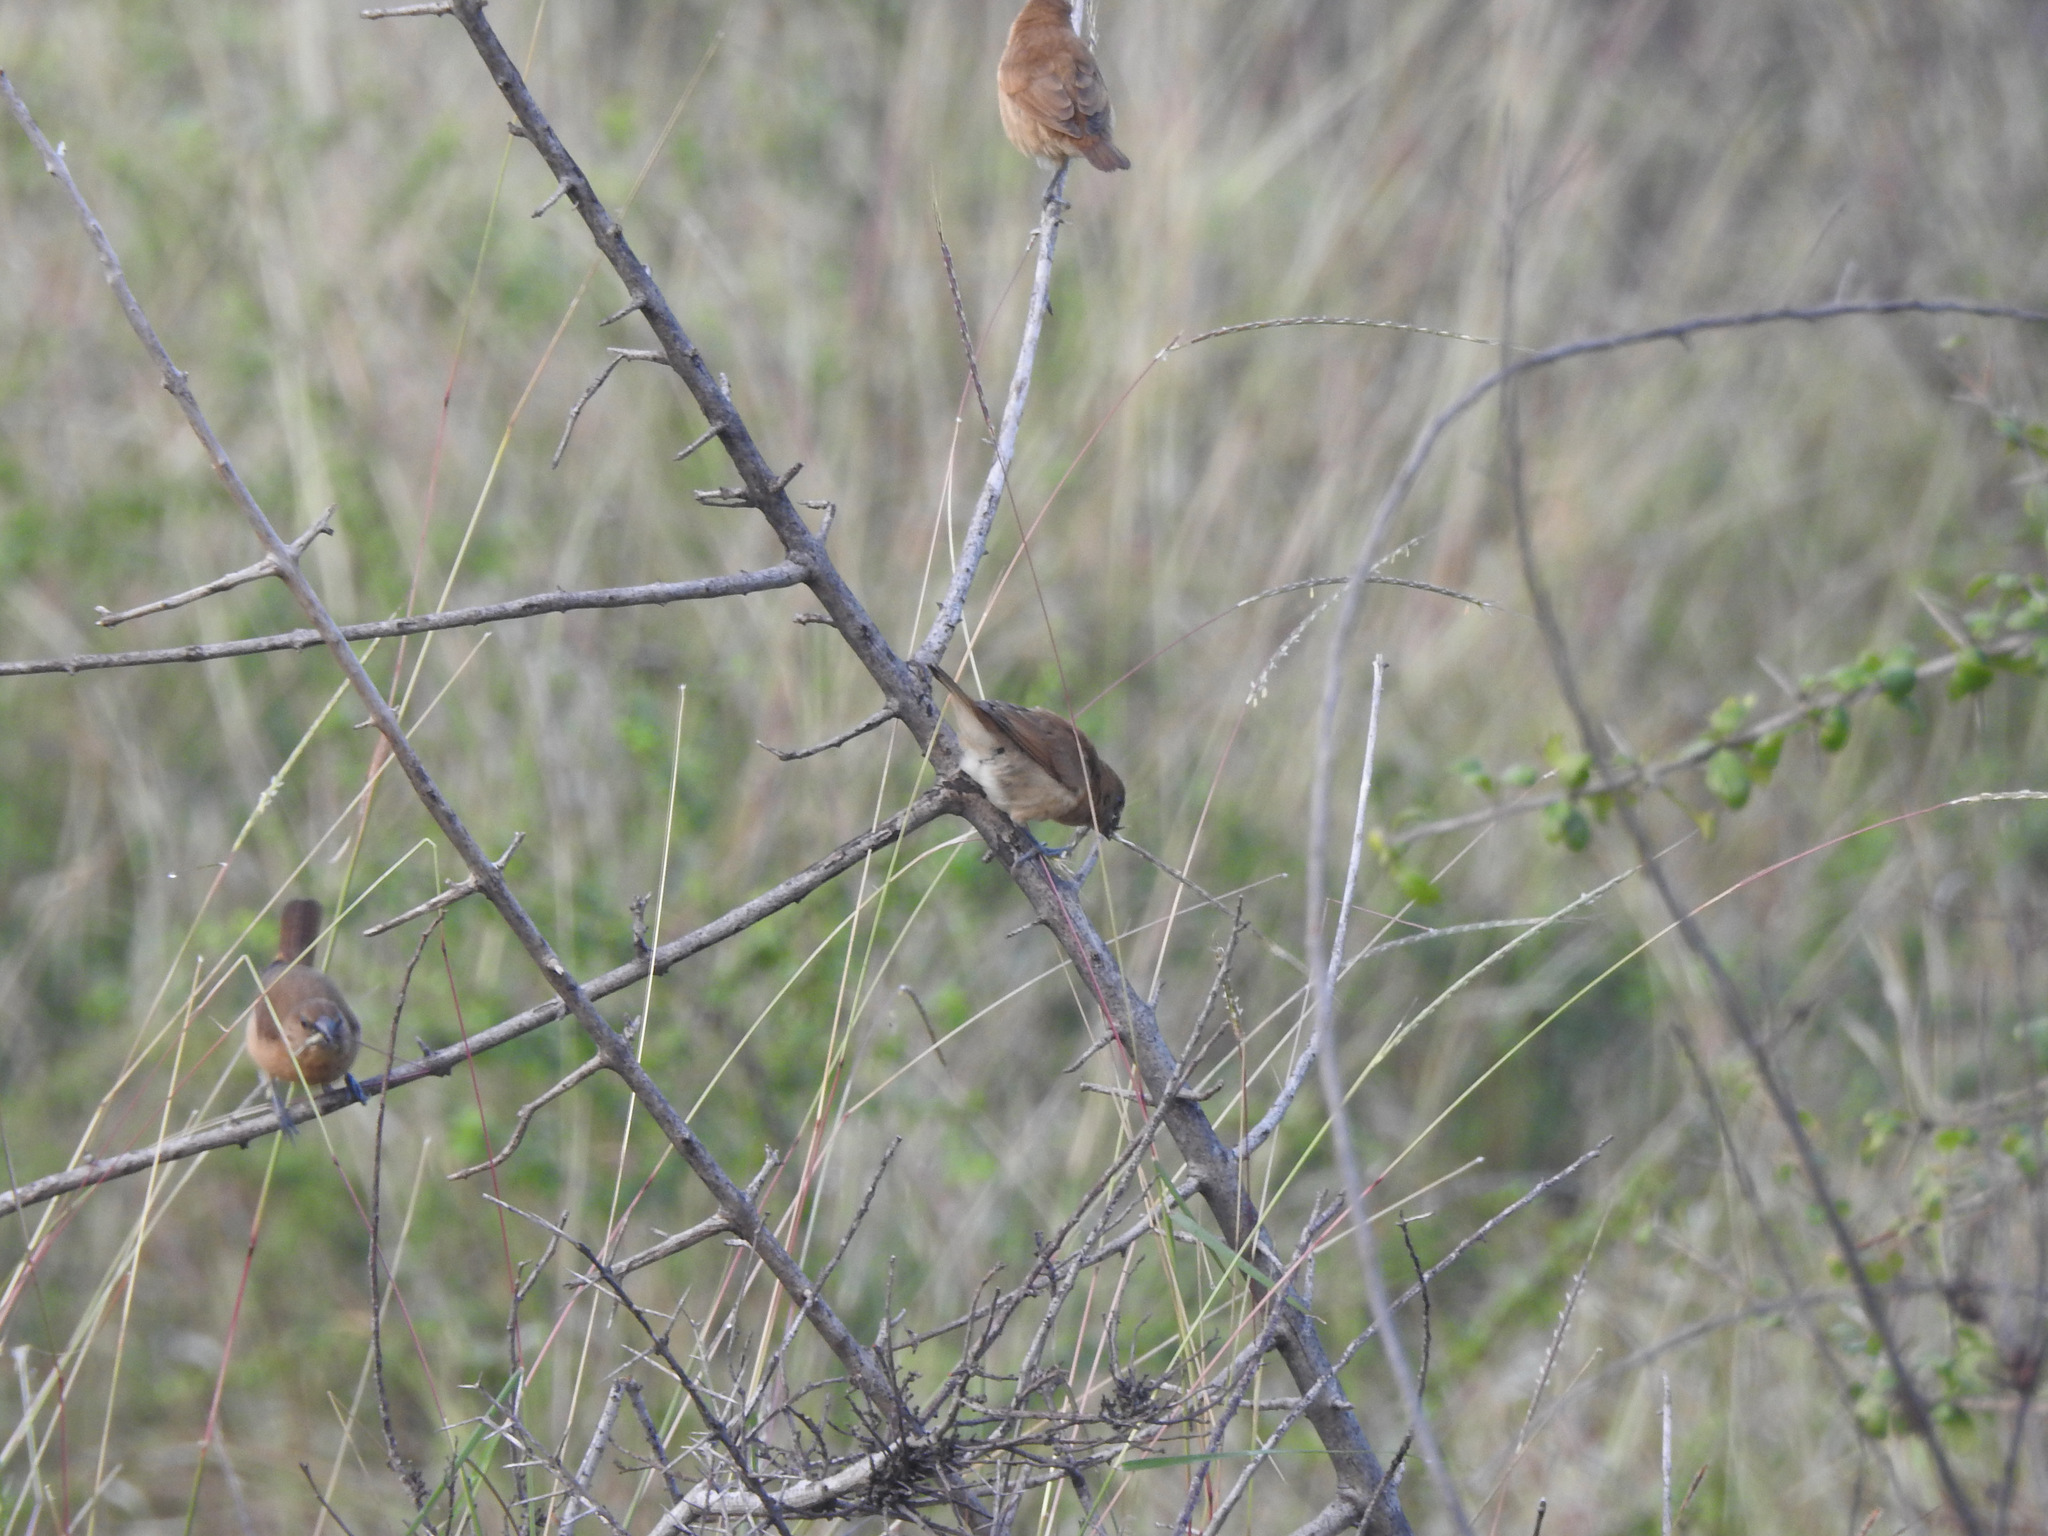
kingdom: Animalia
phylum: Chordata
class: Aves
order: Passeriformes
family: Estrildidae
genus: Lonchura
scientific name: Lonchura punctulata
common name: Scaly-breasted munia
